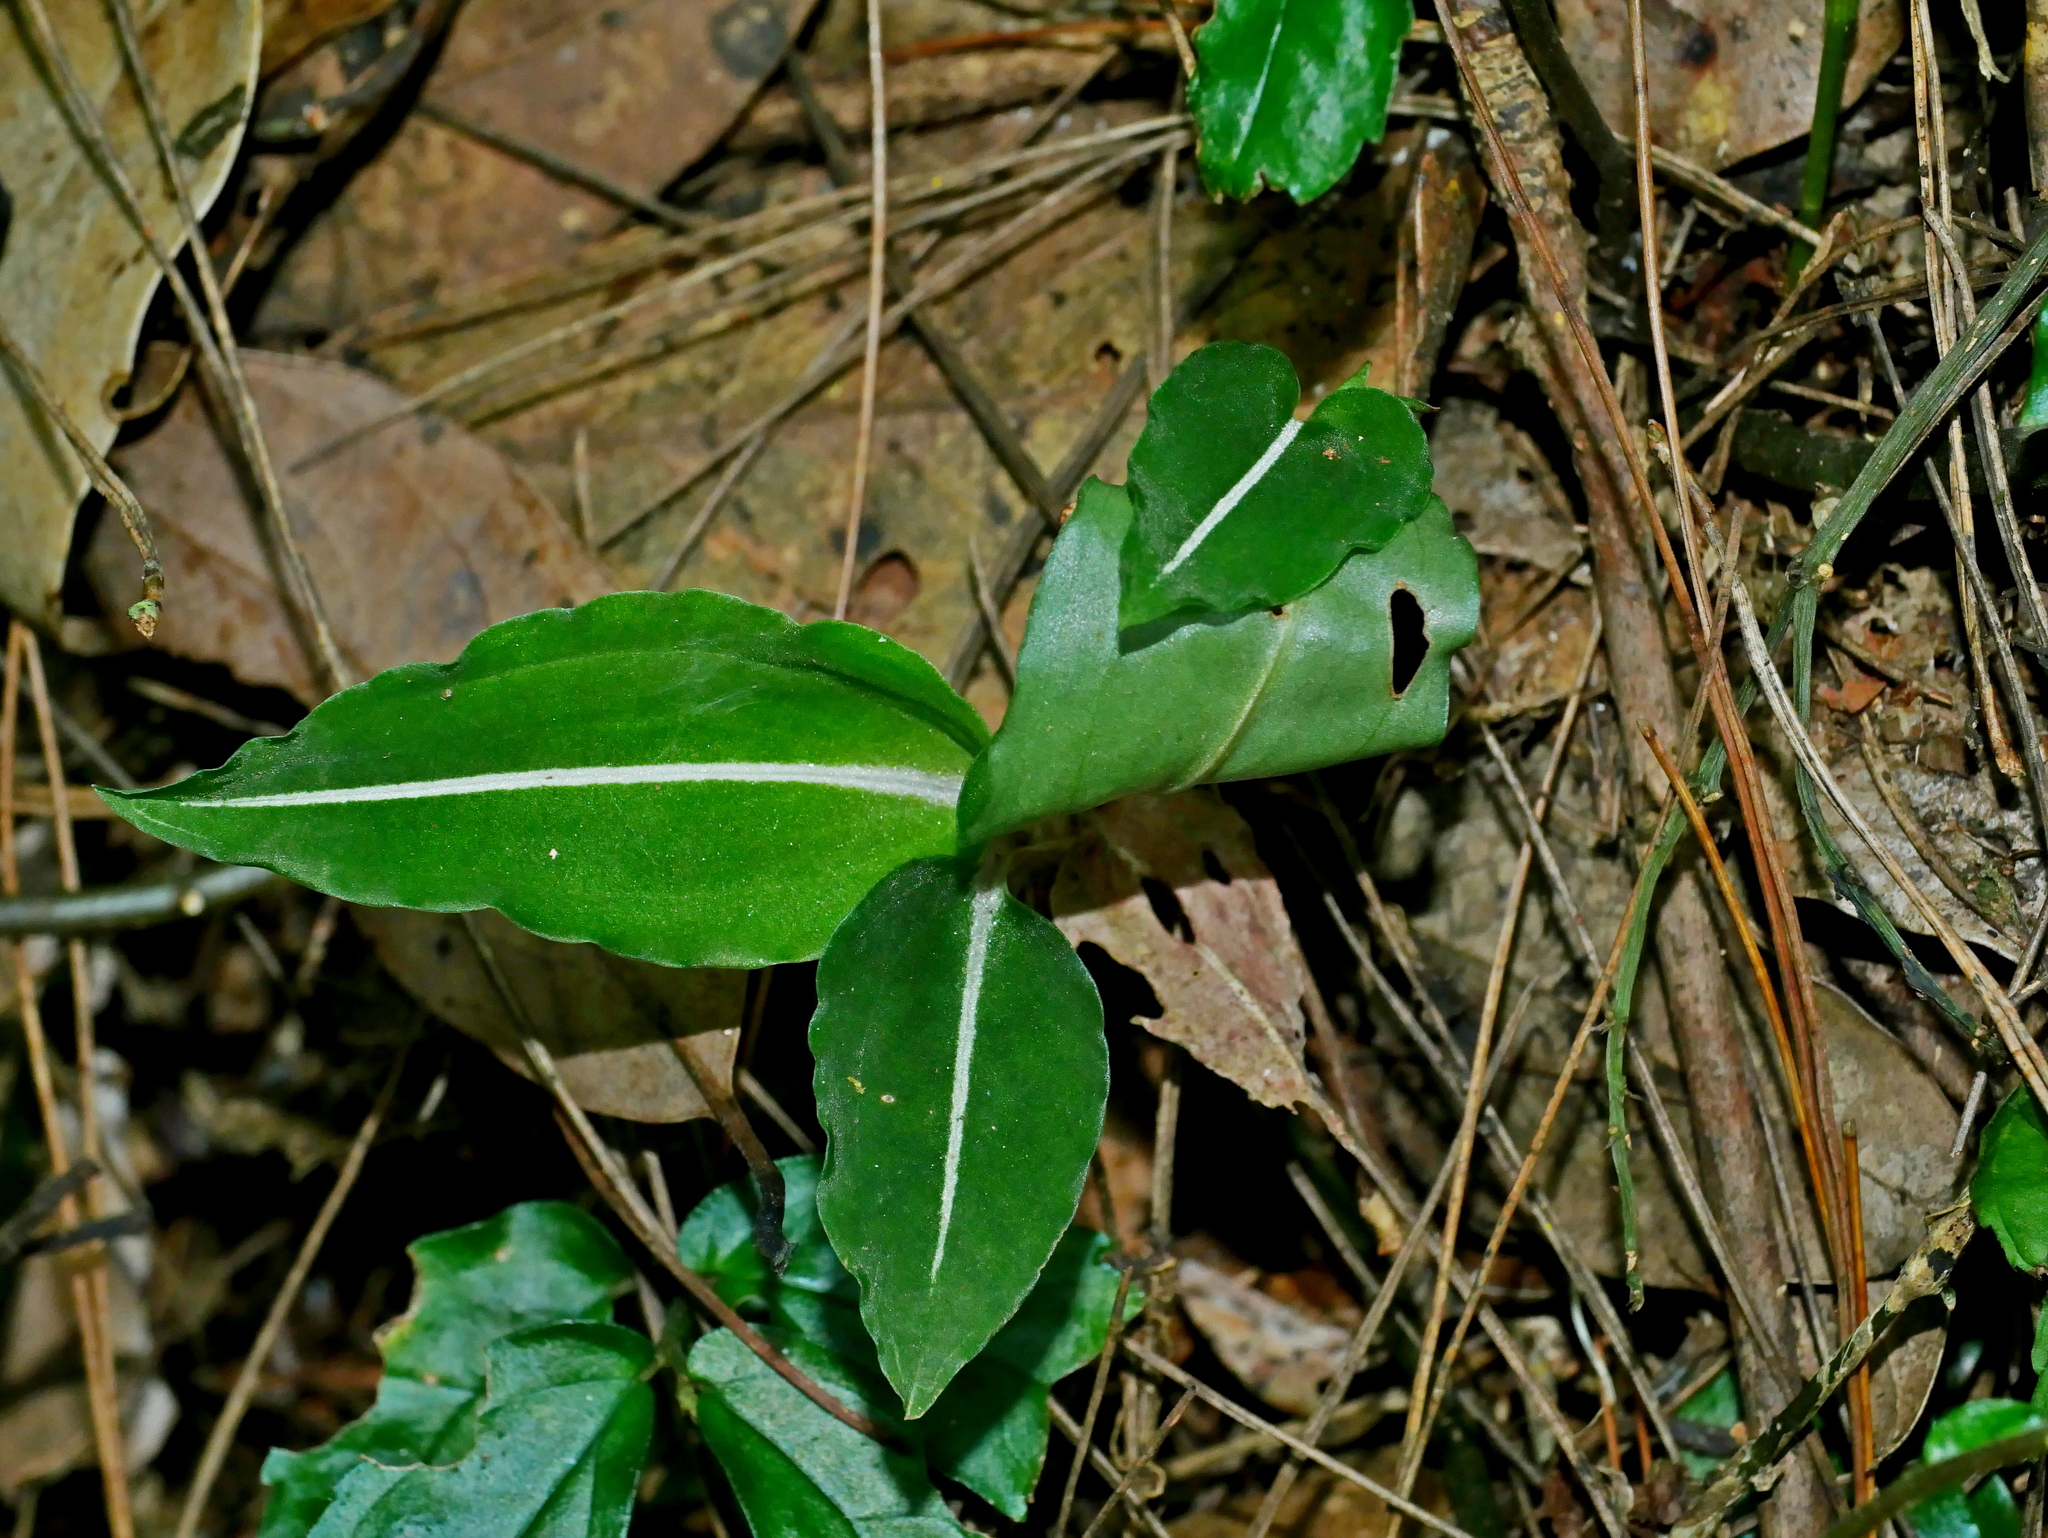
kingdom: Plantae
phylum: Tracheophyta
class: Liliopsida
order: Asparagales
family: Orchidaceae
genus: Rhomboda
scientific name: Rhomboda yakusimensis
